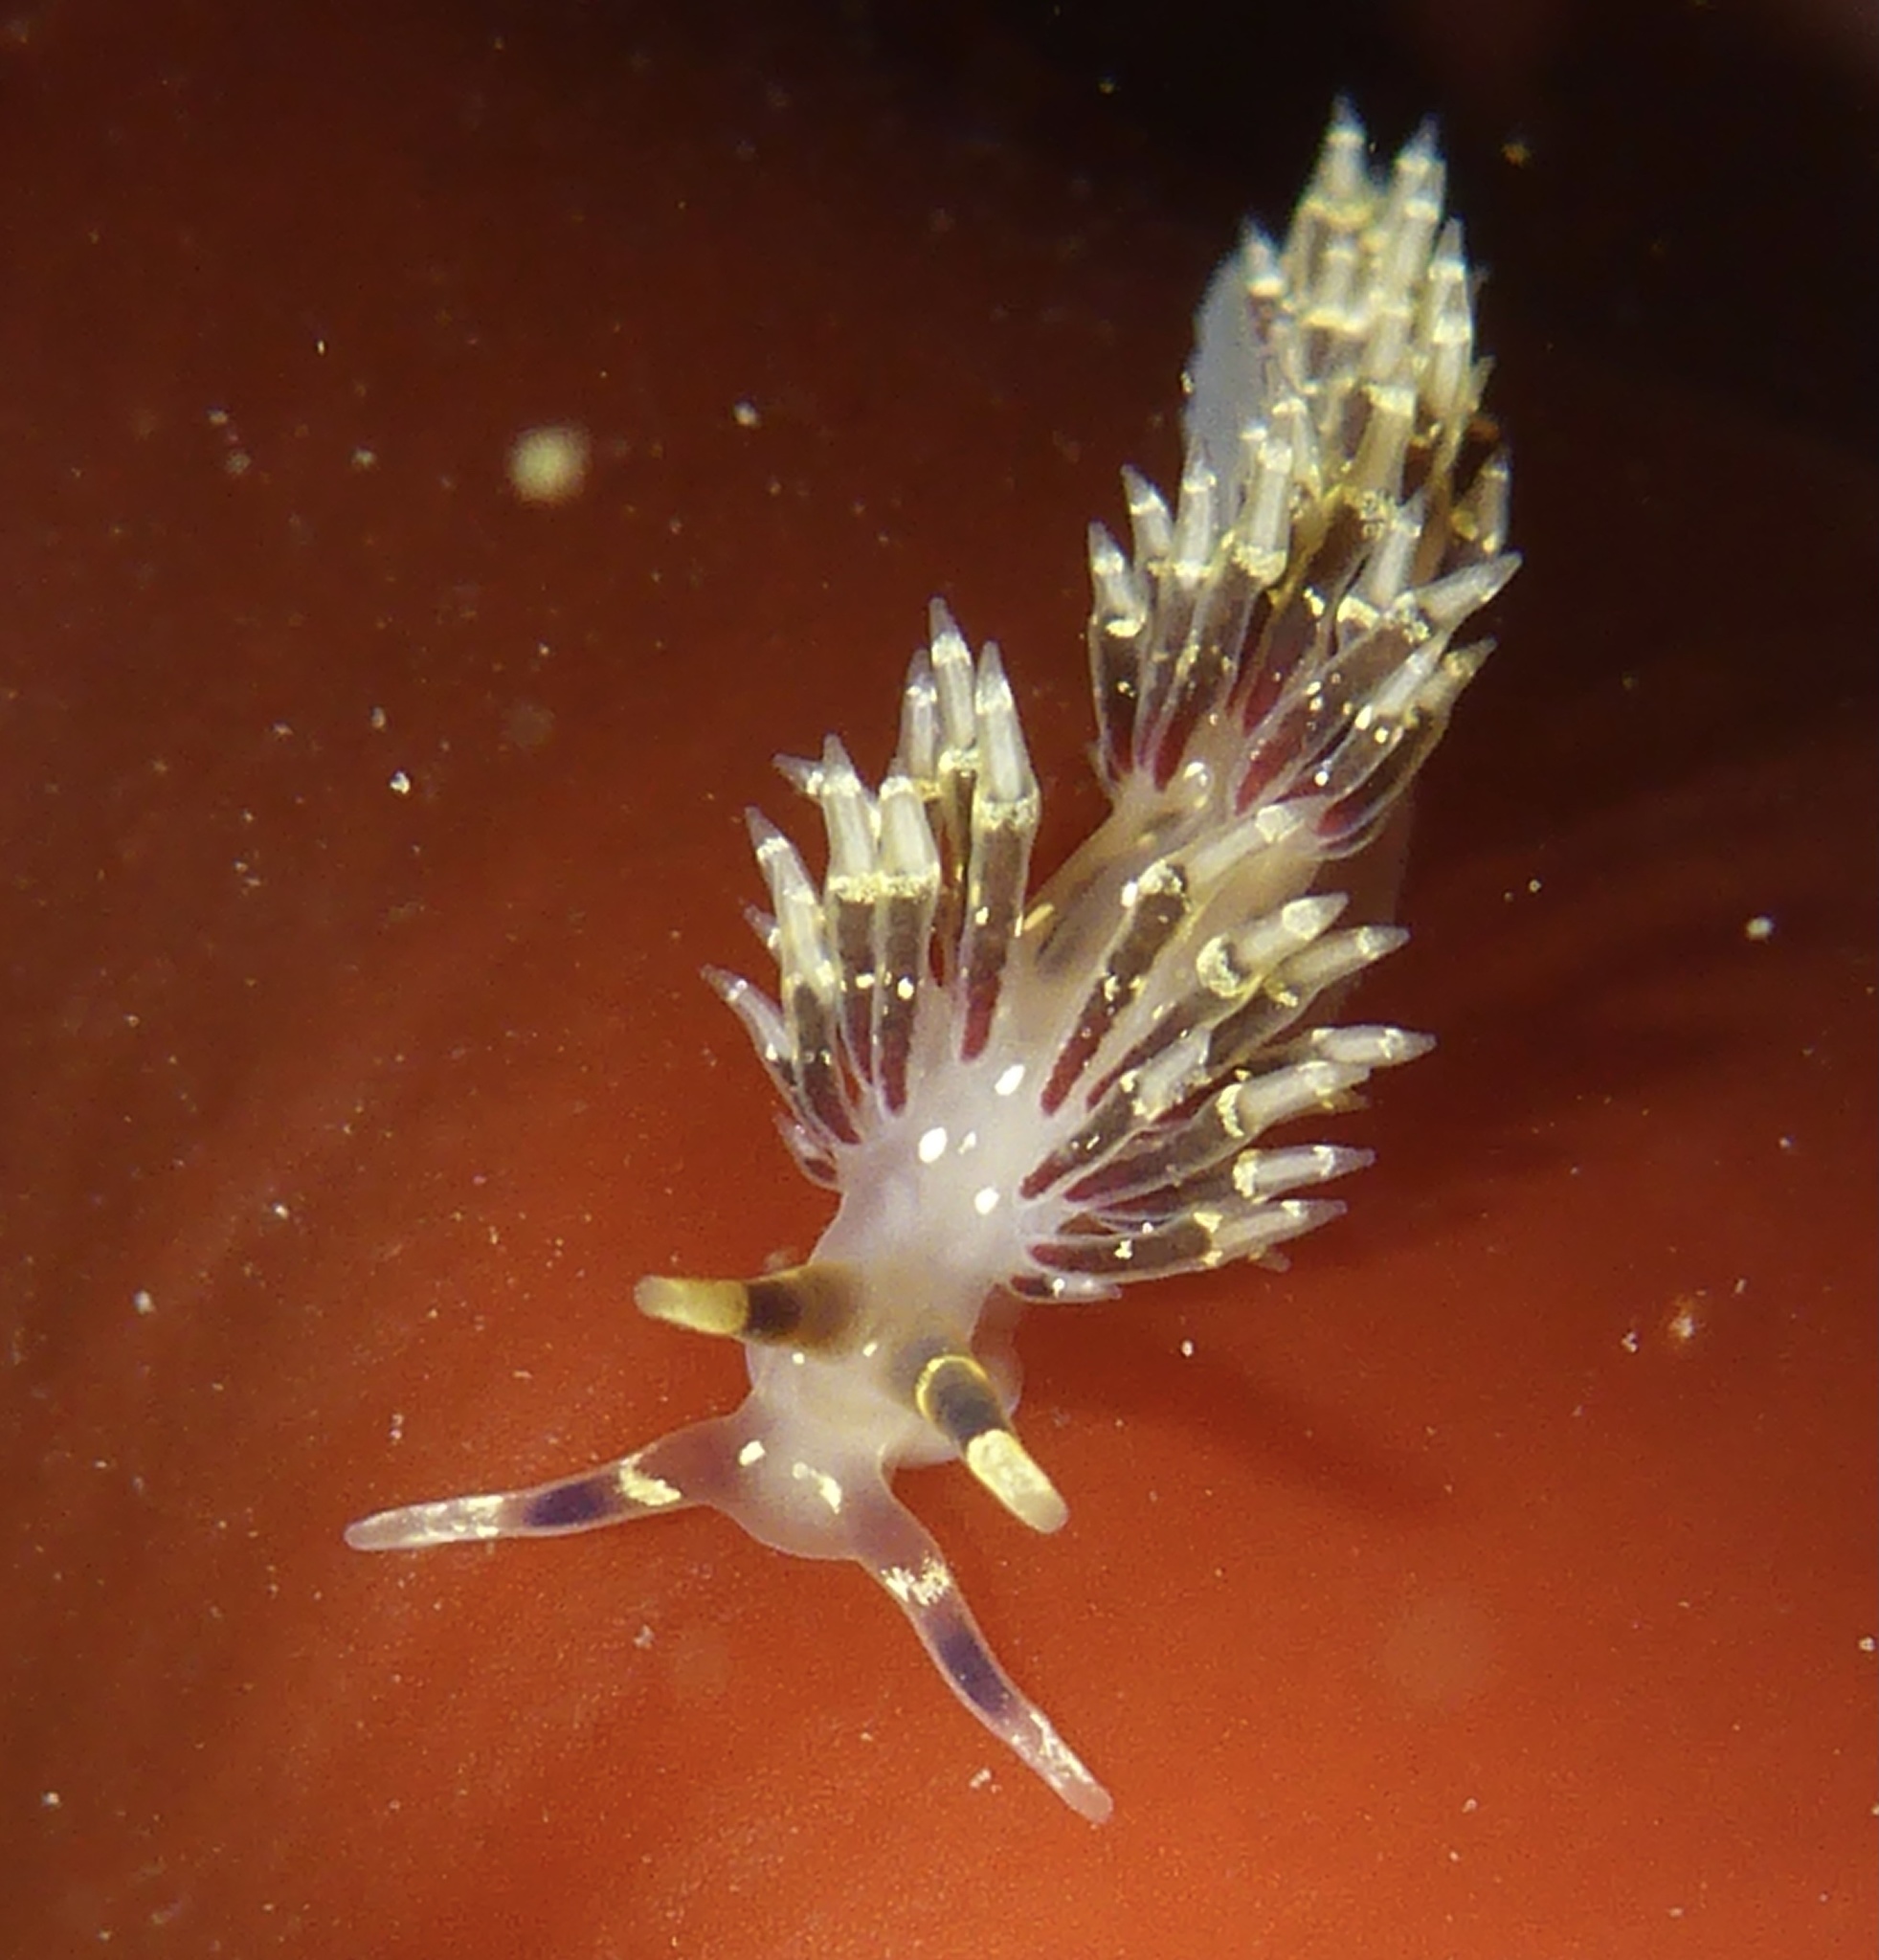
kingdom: Animalia
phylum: Mollusca
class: Gastropoda
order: Nudibranchia
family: Abronicidae
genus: Abronica
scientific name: Abronica abronia
